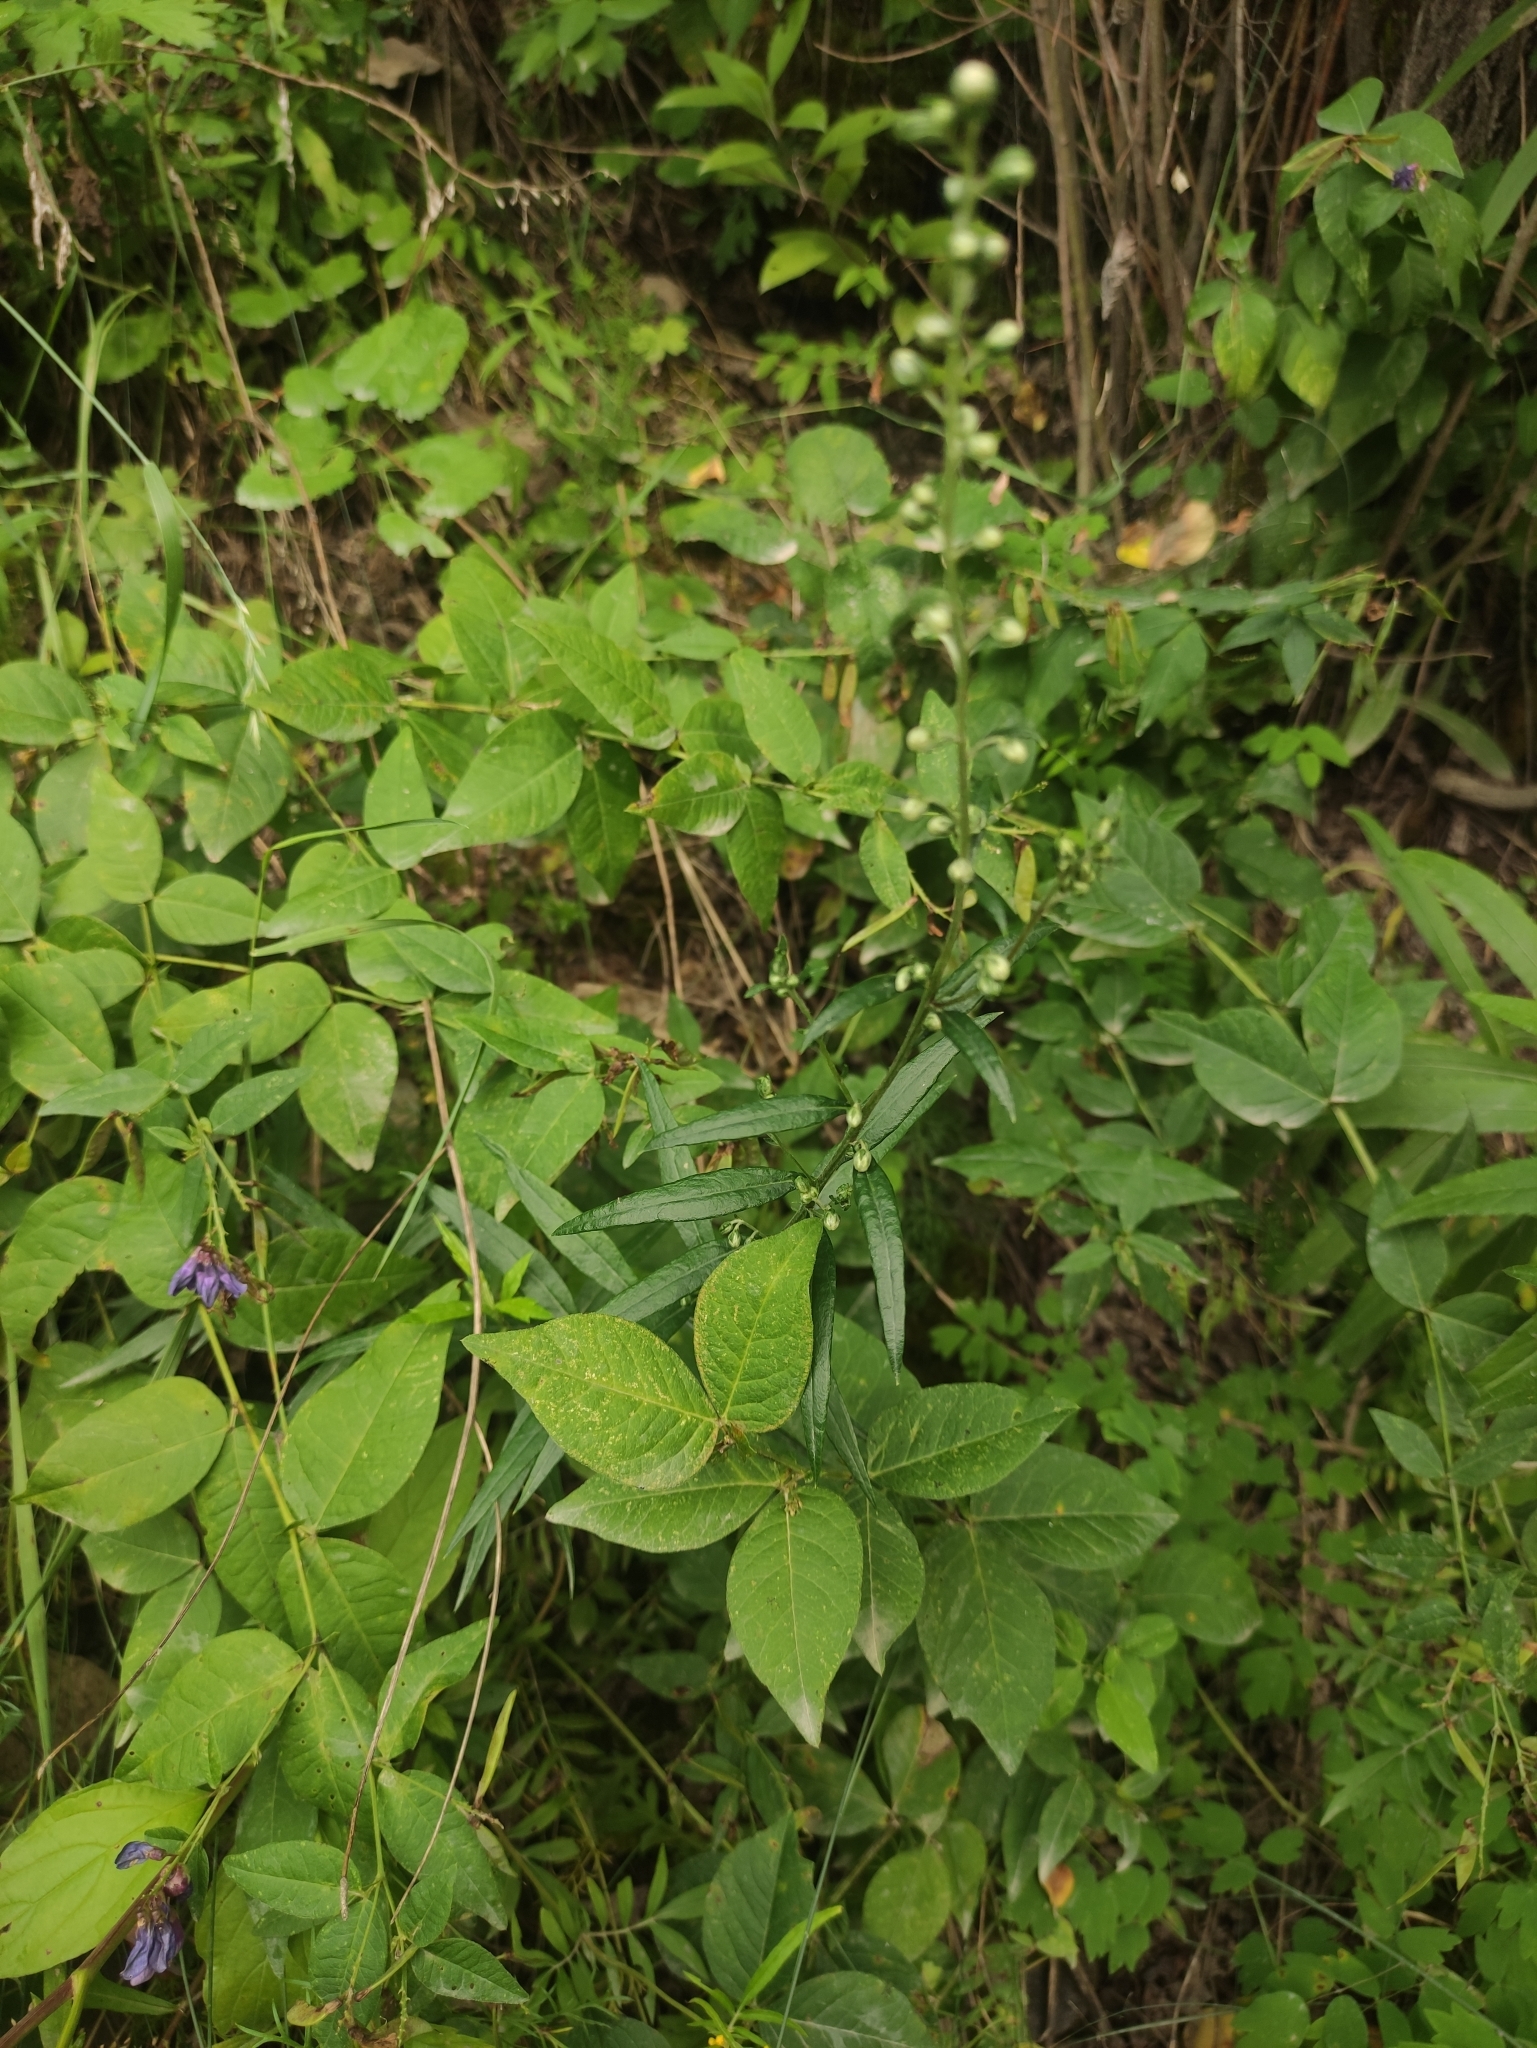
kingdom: Plantae
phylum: Tracheophyta
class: Magnoliopsida
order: Asterales
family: Asteraceae
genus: Artemisia
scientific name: Artemisia integrifolia
